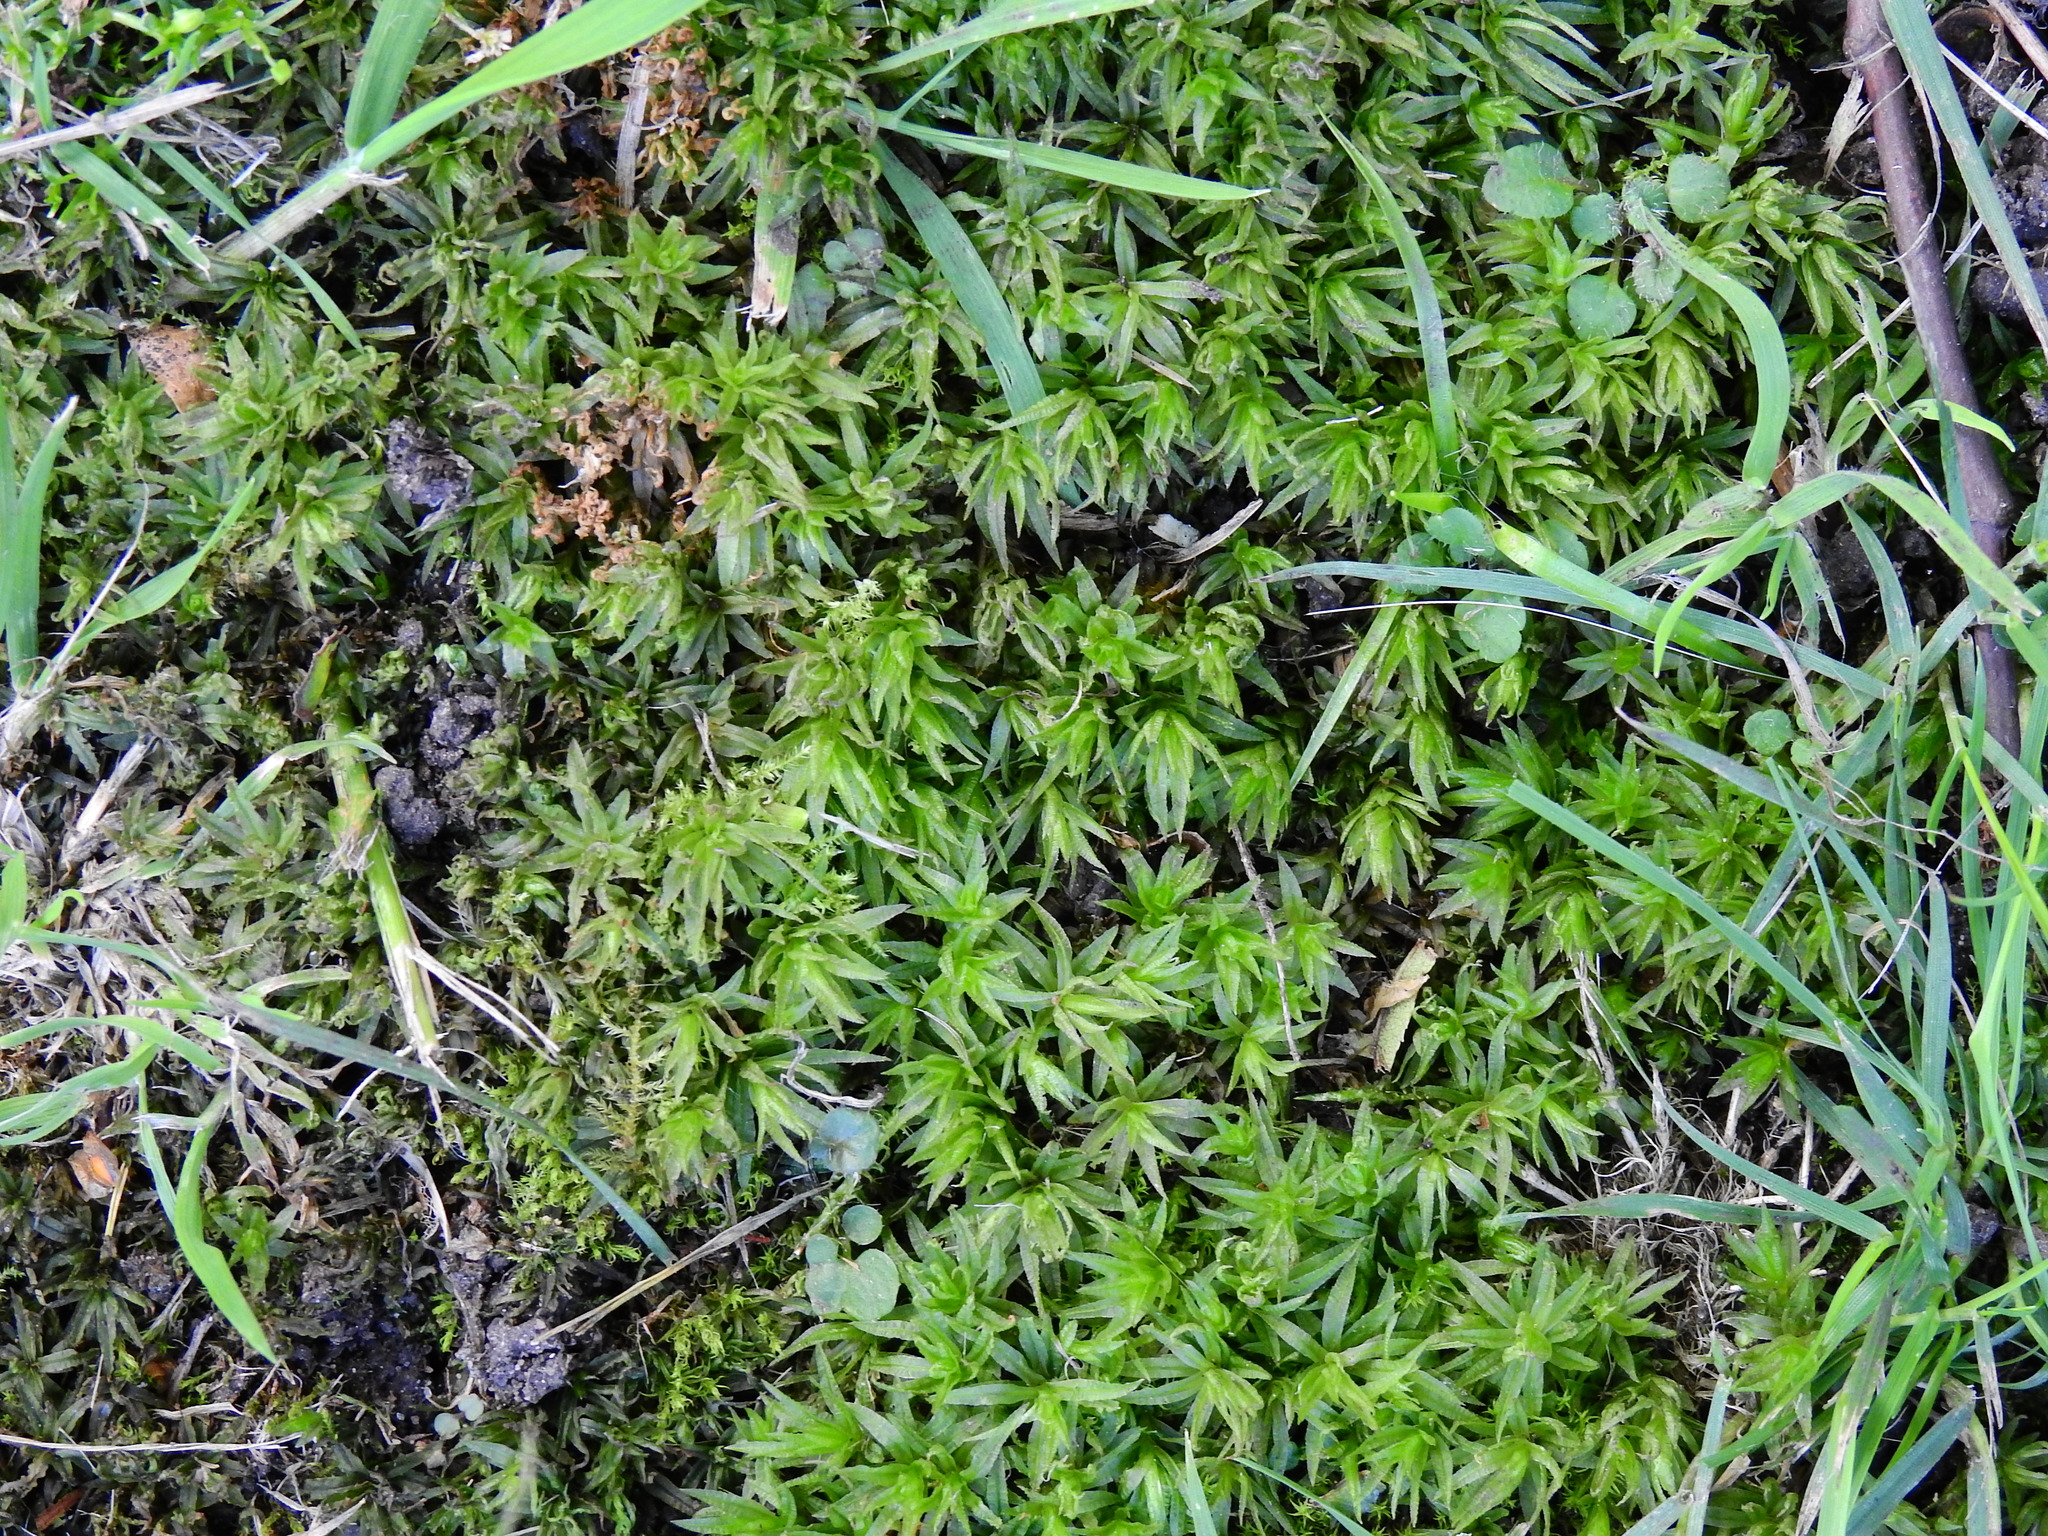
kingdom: Plantae
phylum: Bryophyta
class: Polytrichopsida
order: Polytrichales
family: Polytrichaceae
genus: Atrichum
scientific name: Atrichum undulatum
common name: Common smoothcap
